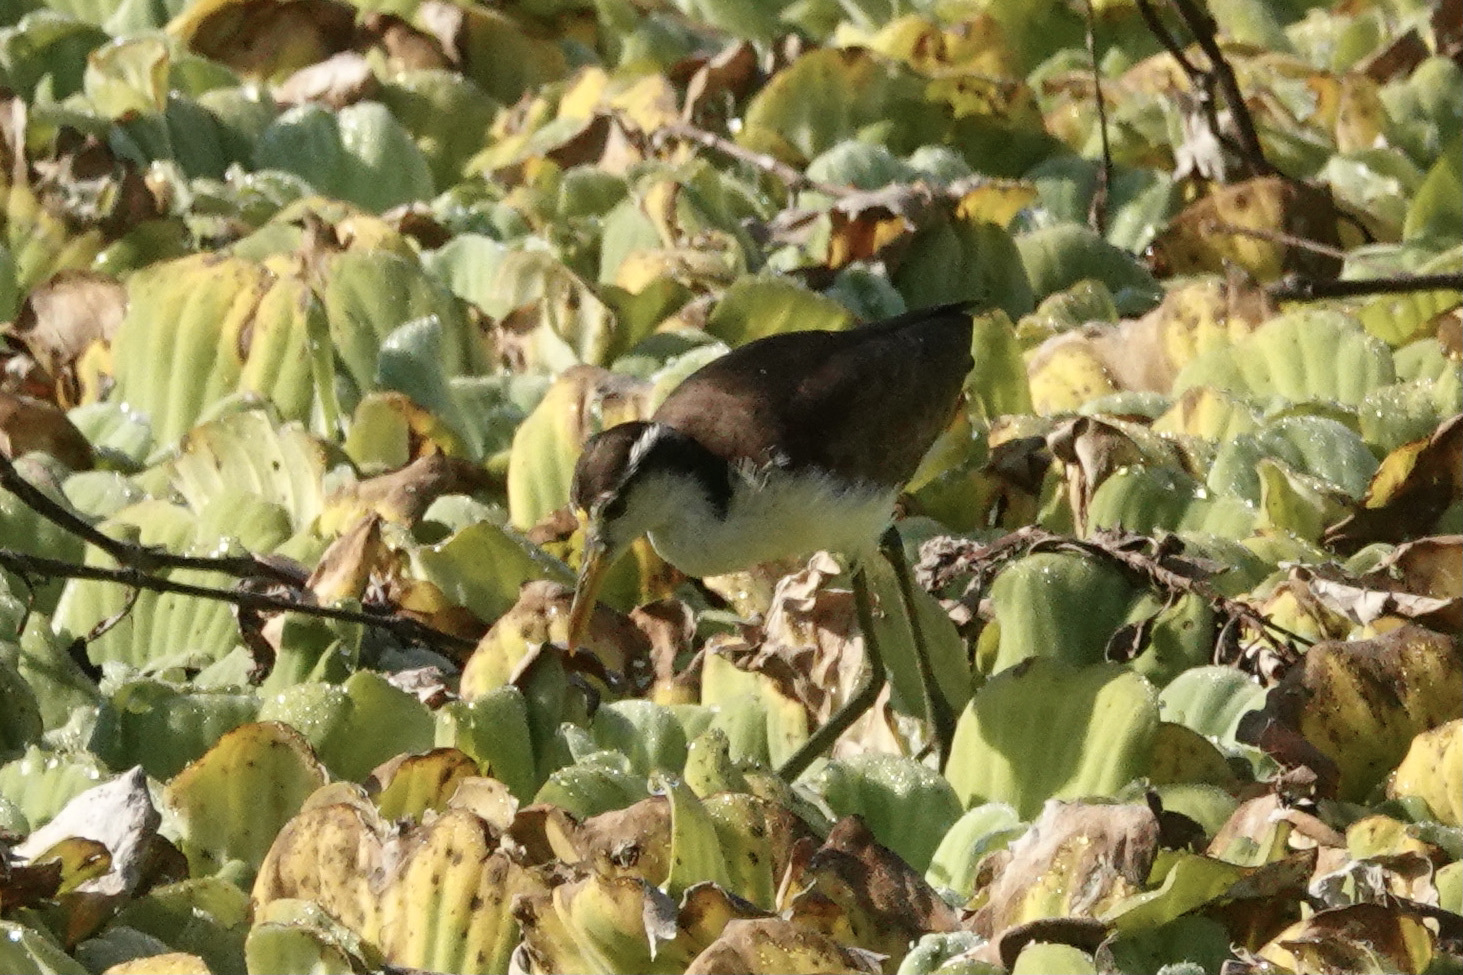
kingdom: Animalia
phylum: Chordata
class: Aves
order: Charadriiformes
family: Jacanidae
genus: Jacana
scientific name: Jacana spinosa
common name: Northern jacana
